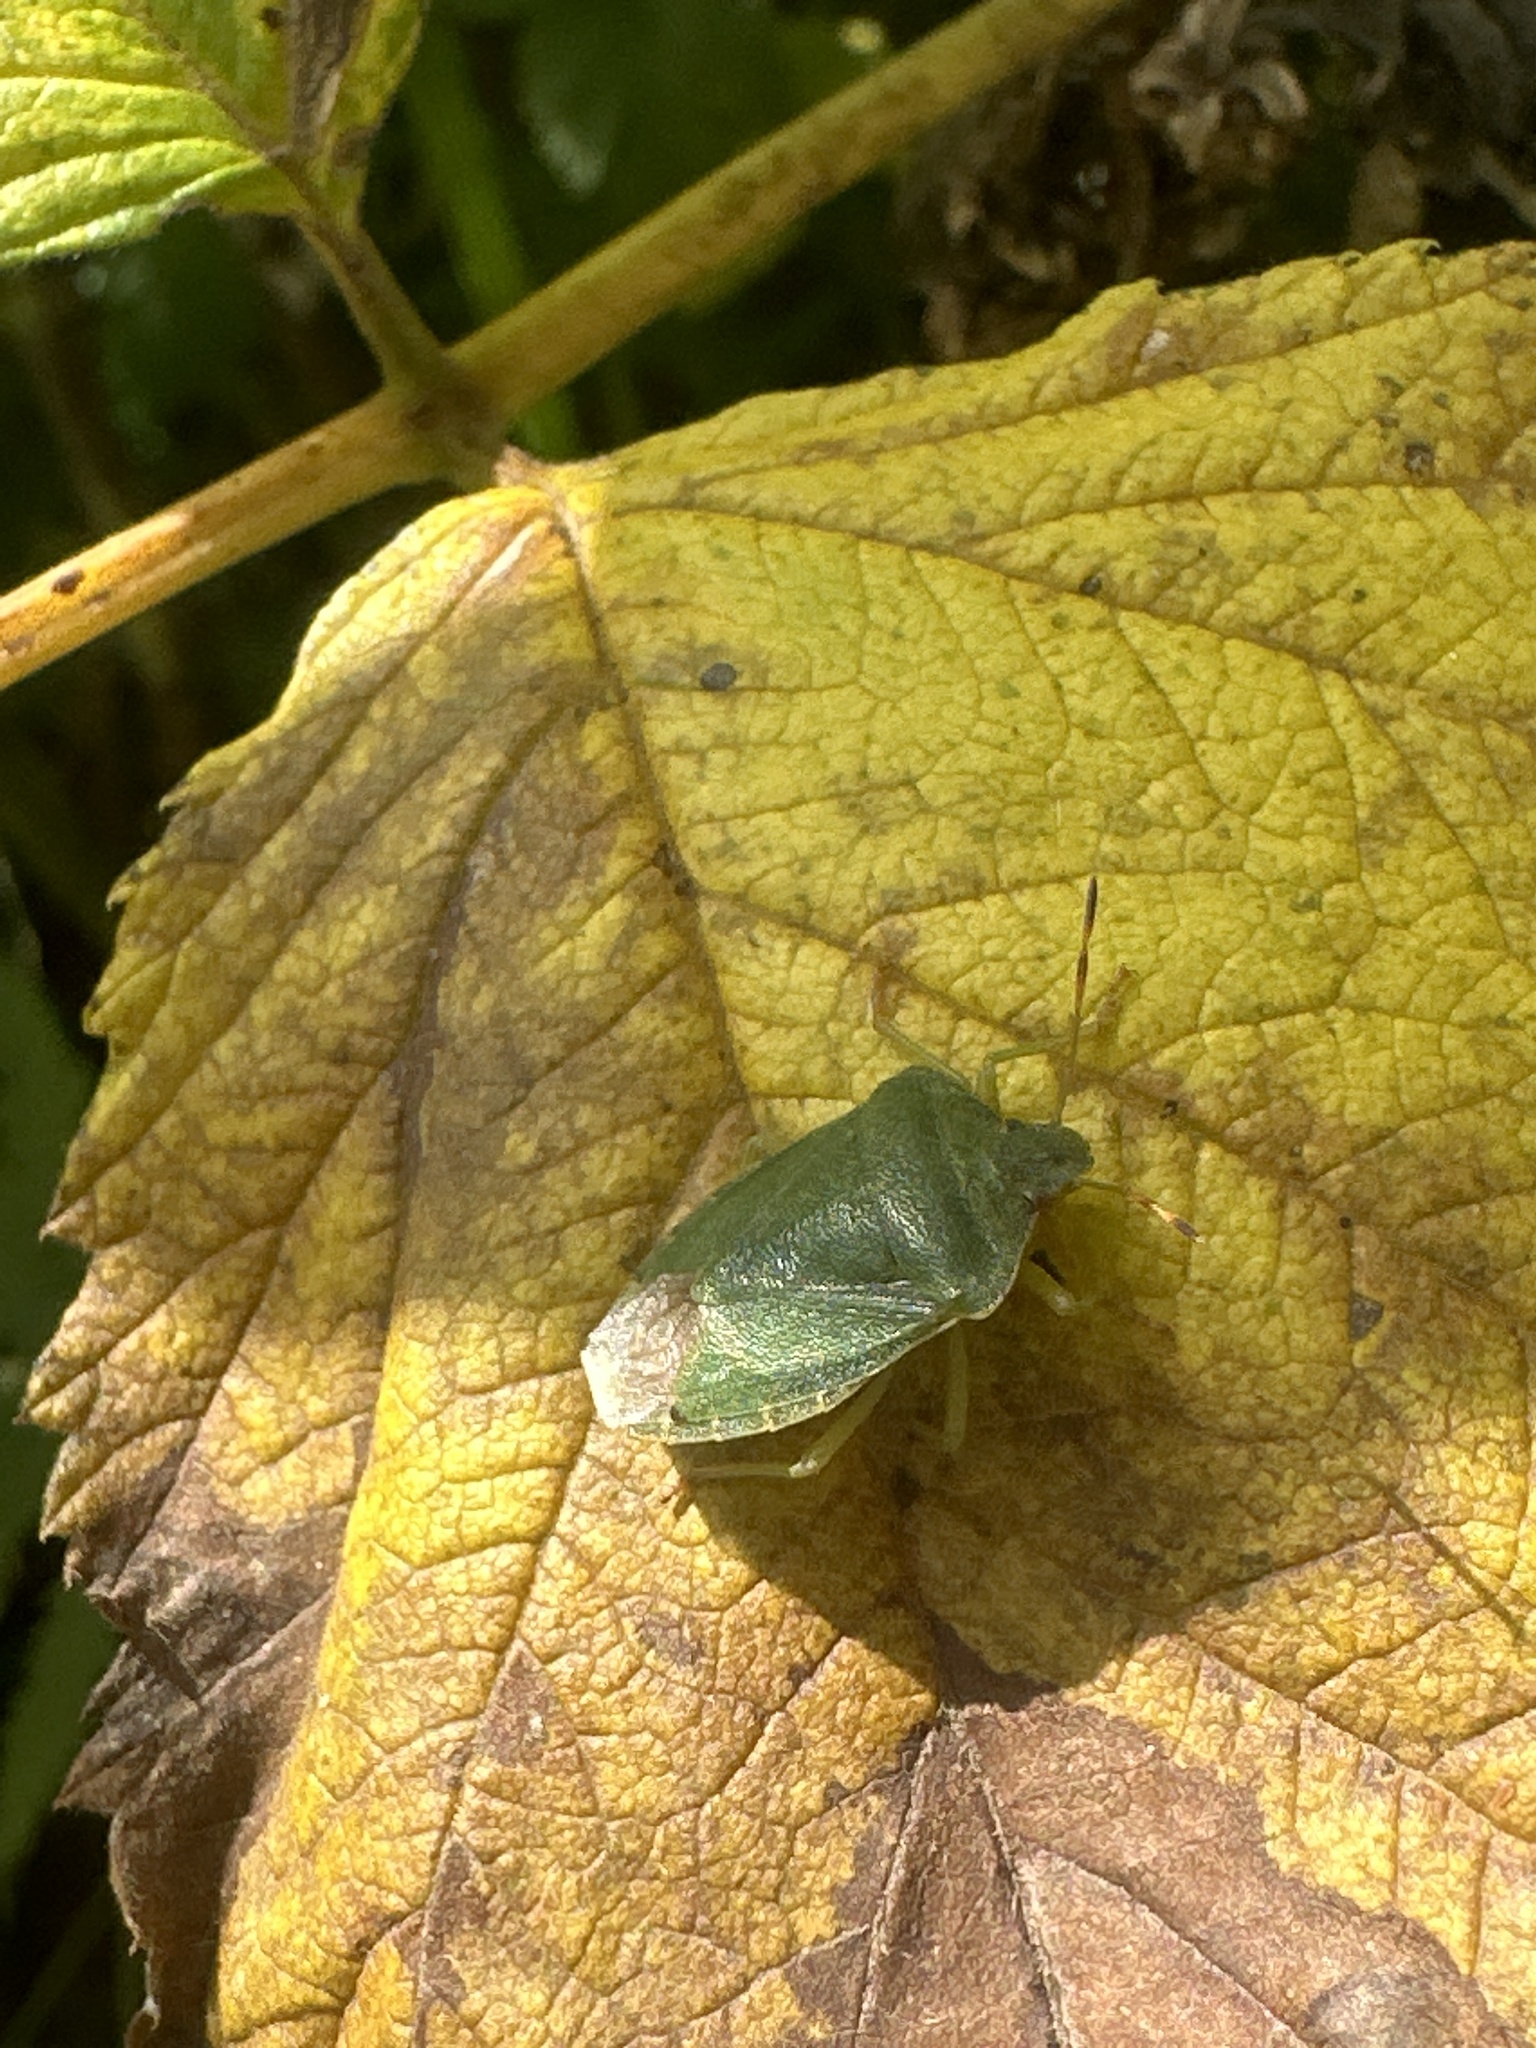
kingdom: Animalia
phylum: Arthropoda
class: Insecta
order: Hemiptera
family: Pentatomidae
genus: Palomena
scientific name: Palomena prasina
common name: Green shieldbug
